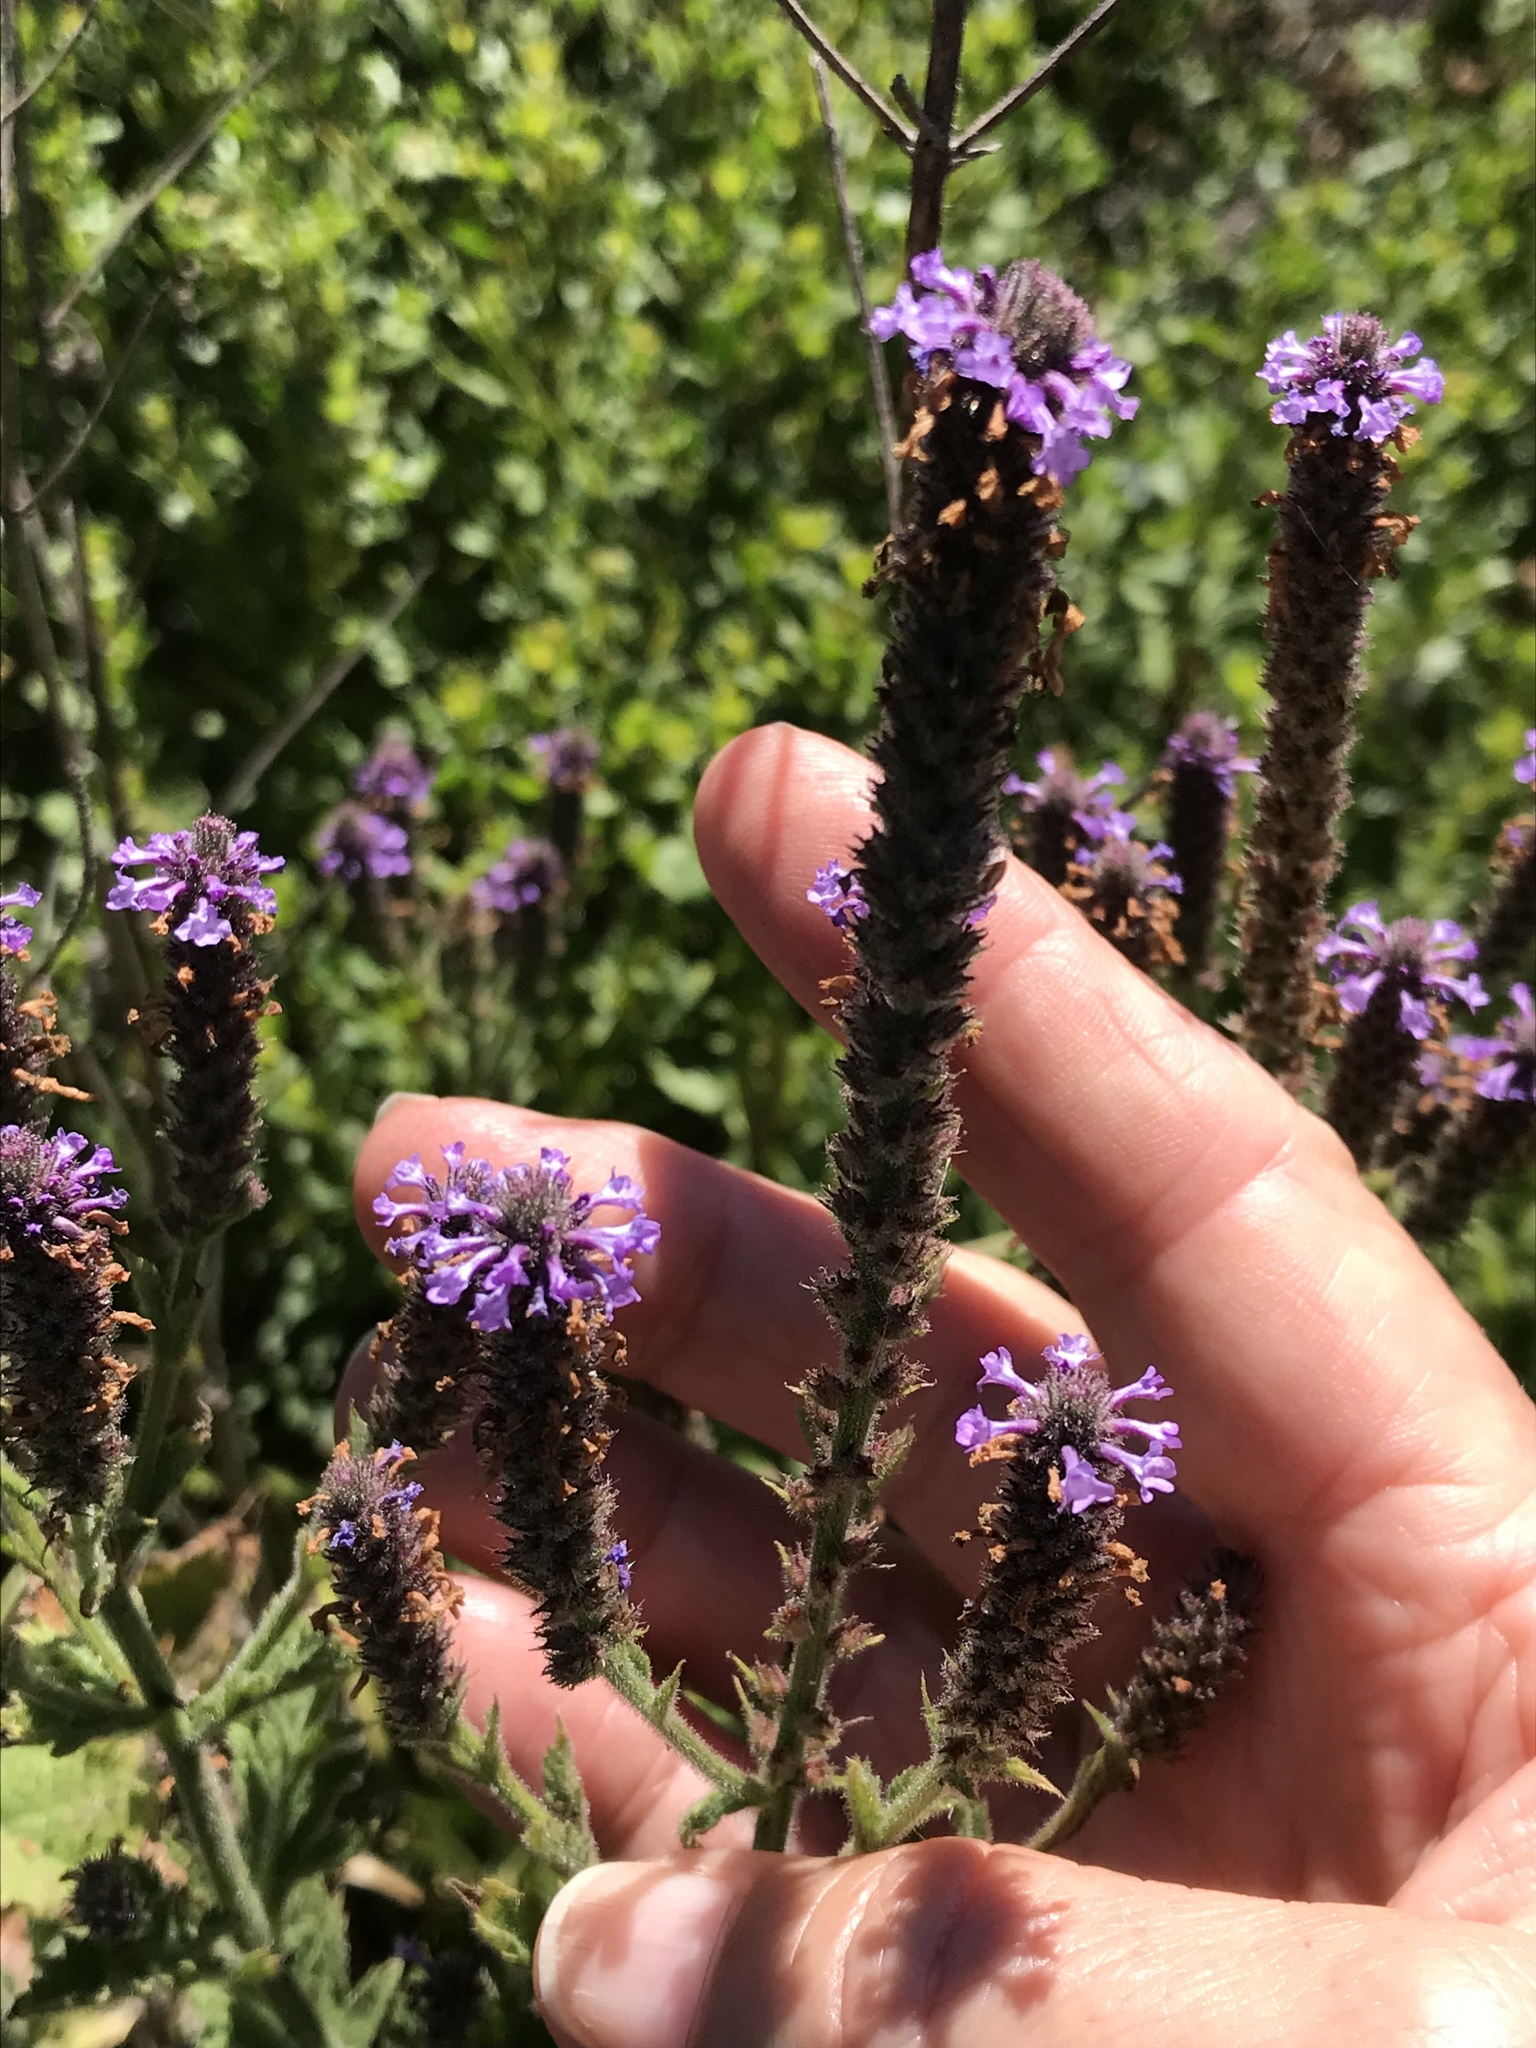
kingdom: Plantae
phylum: Tracheophyta
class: Magnoliopsida
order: Lamiales
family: Verbenaceae
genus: Verbena
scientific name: Verbena lasiostachys
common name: Vervain
